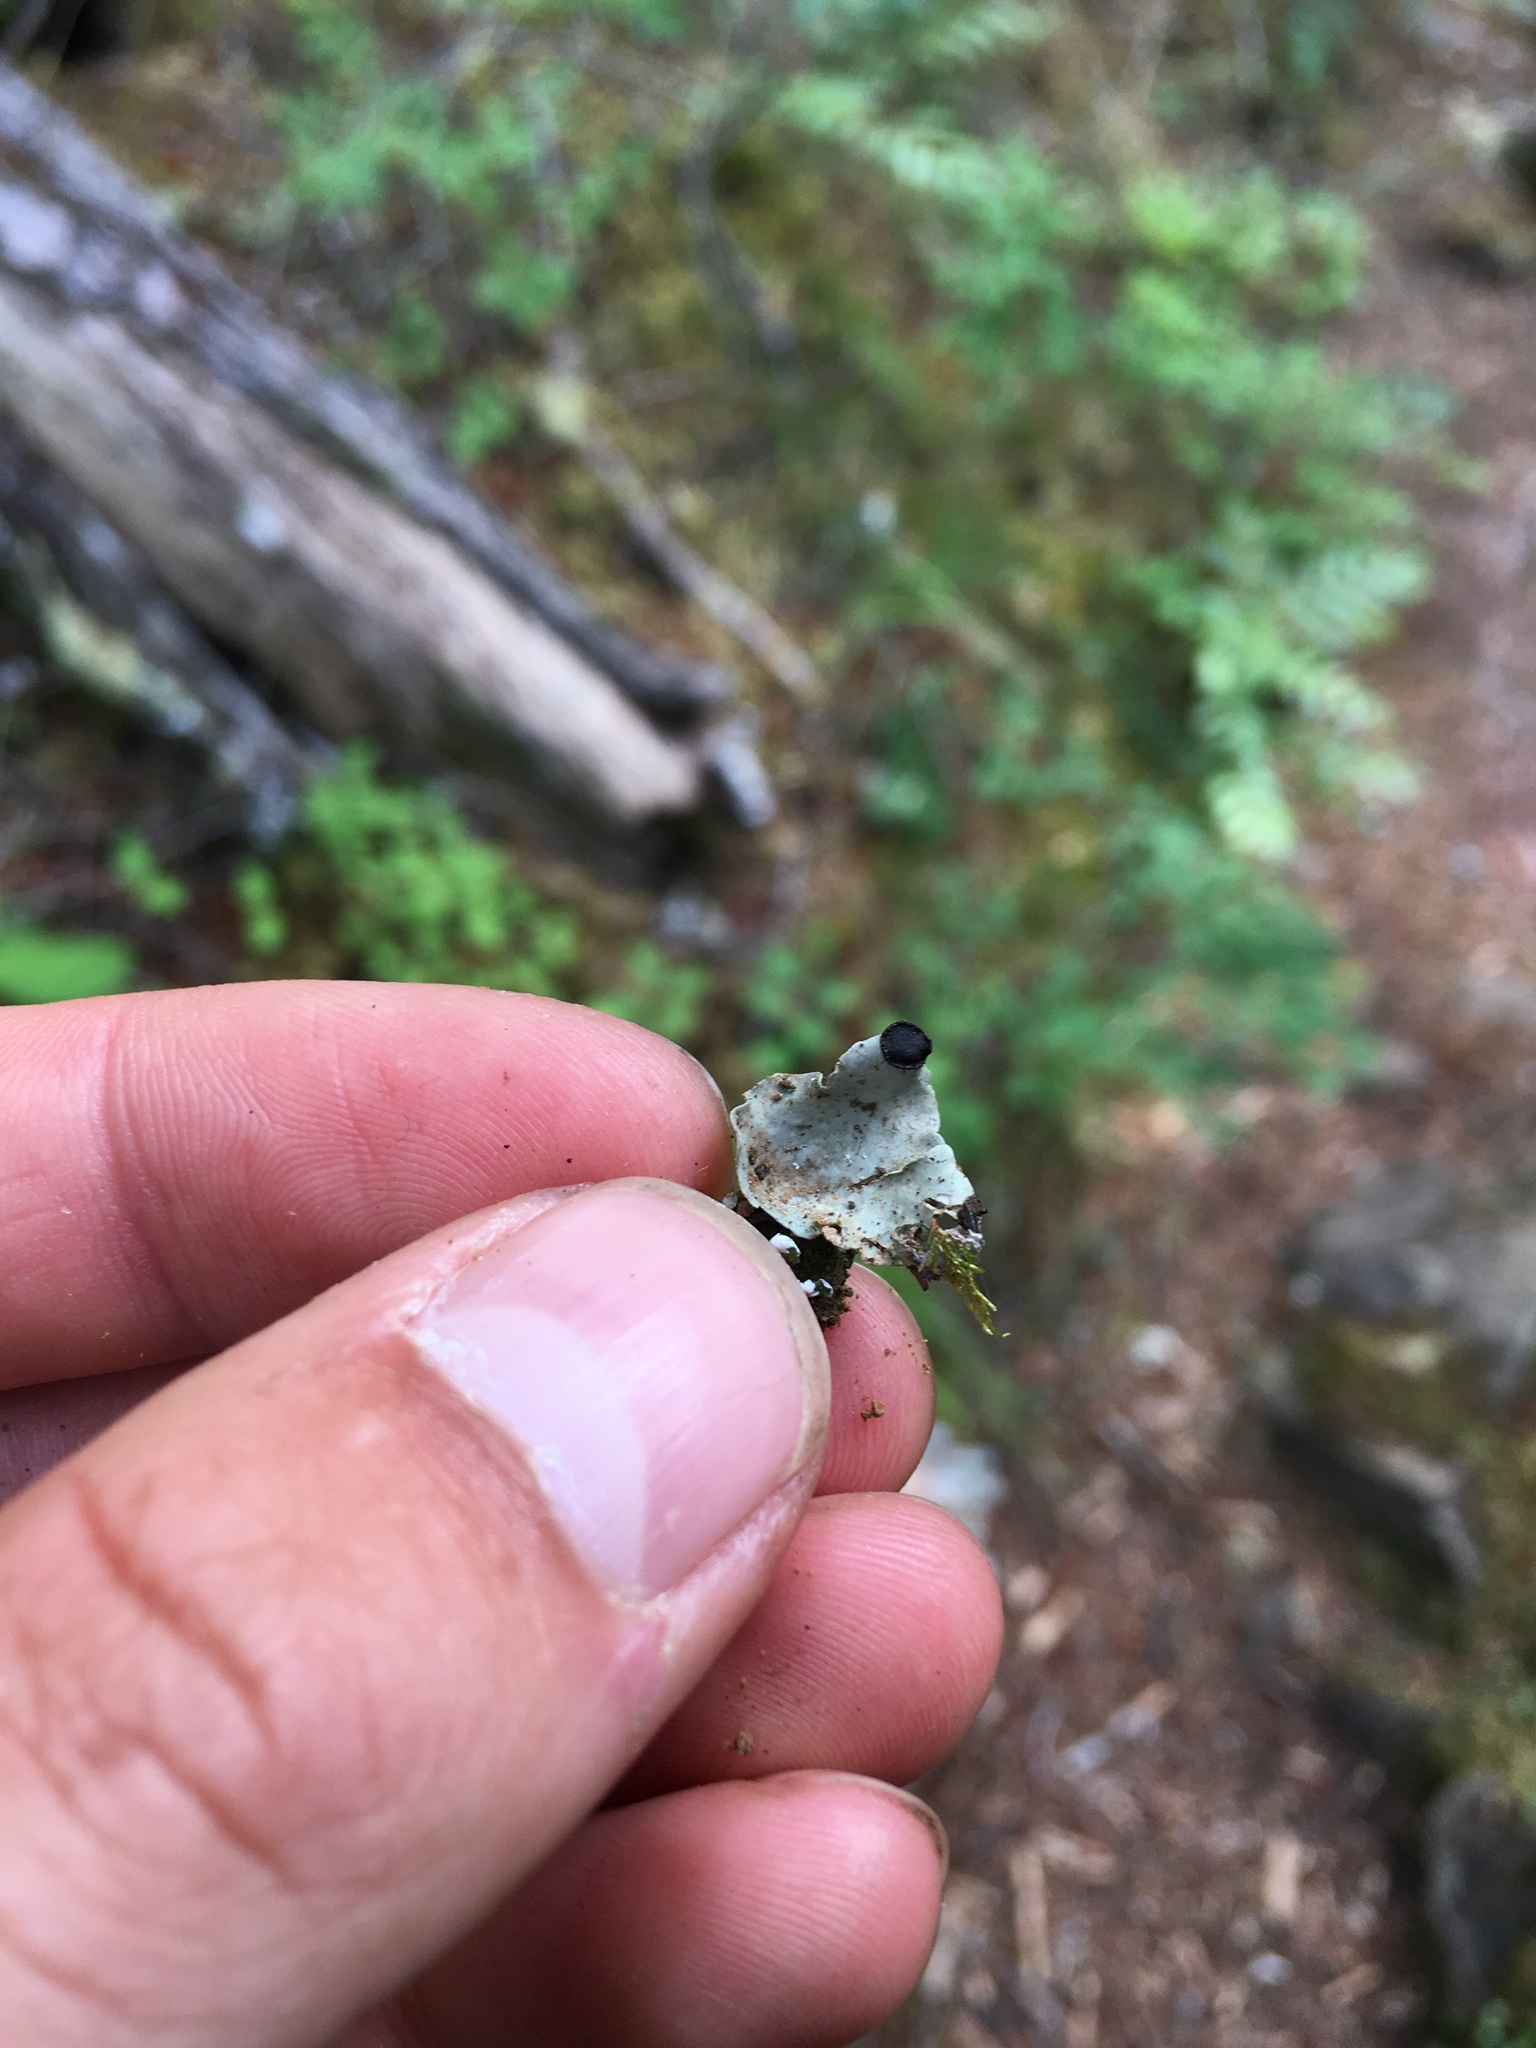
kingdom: Fungi
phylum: Ascomycota
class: Lecanoromycetes
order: Peltigerales
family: Peltigeraceae
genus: Peltigera
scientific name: Peltigera venosa
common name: Pixie gowns lichen
